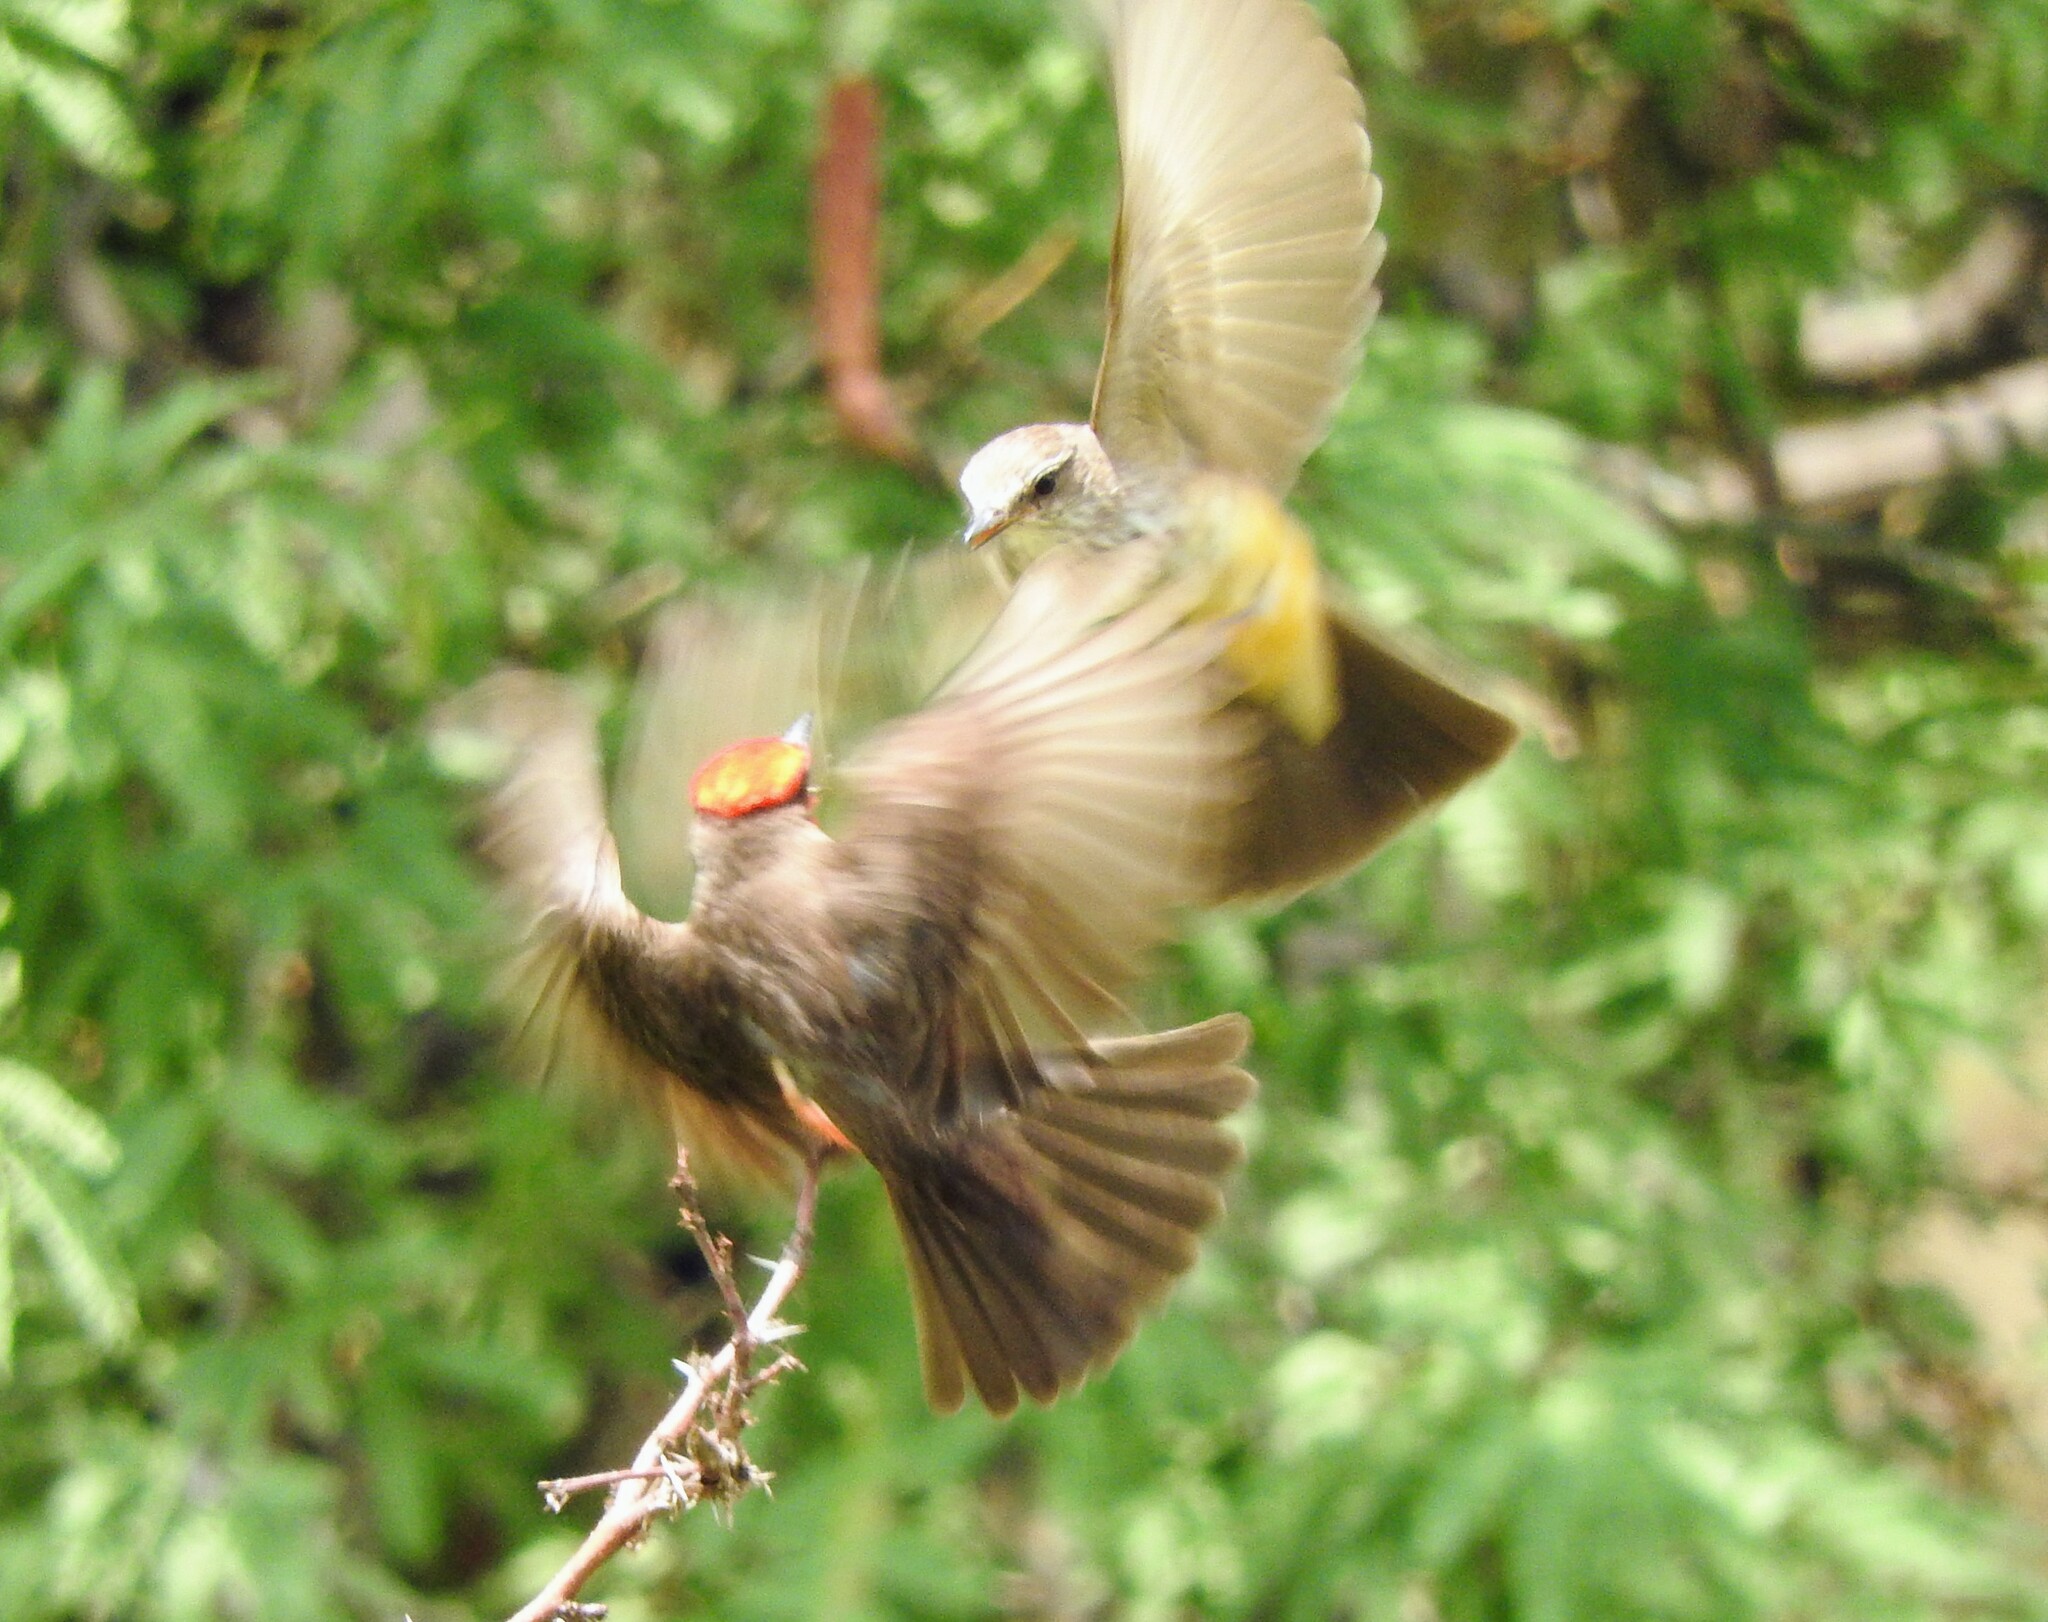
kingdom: Animalia
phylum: Chordata
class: Aves
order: Passeriformes
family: Tyrannidae
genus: Pyrocephalus
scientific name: Pyrocephalus rubinus
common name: Vermilion flycatcher
